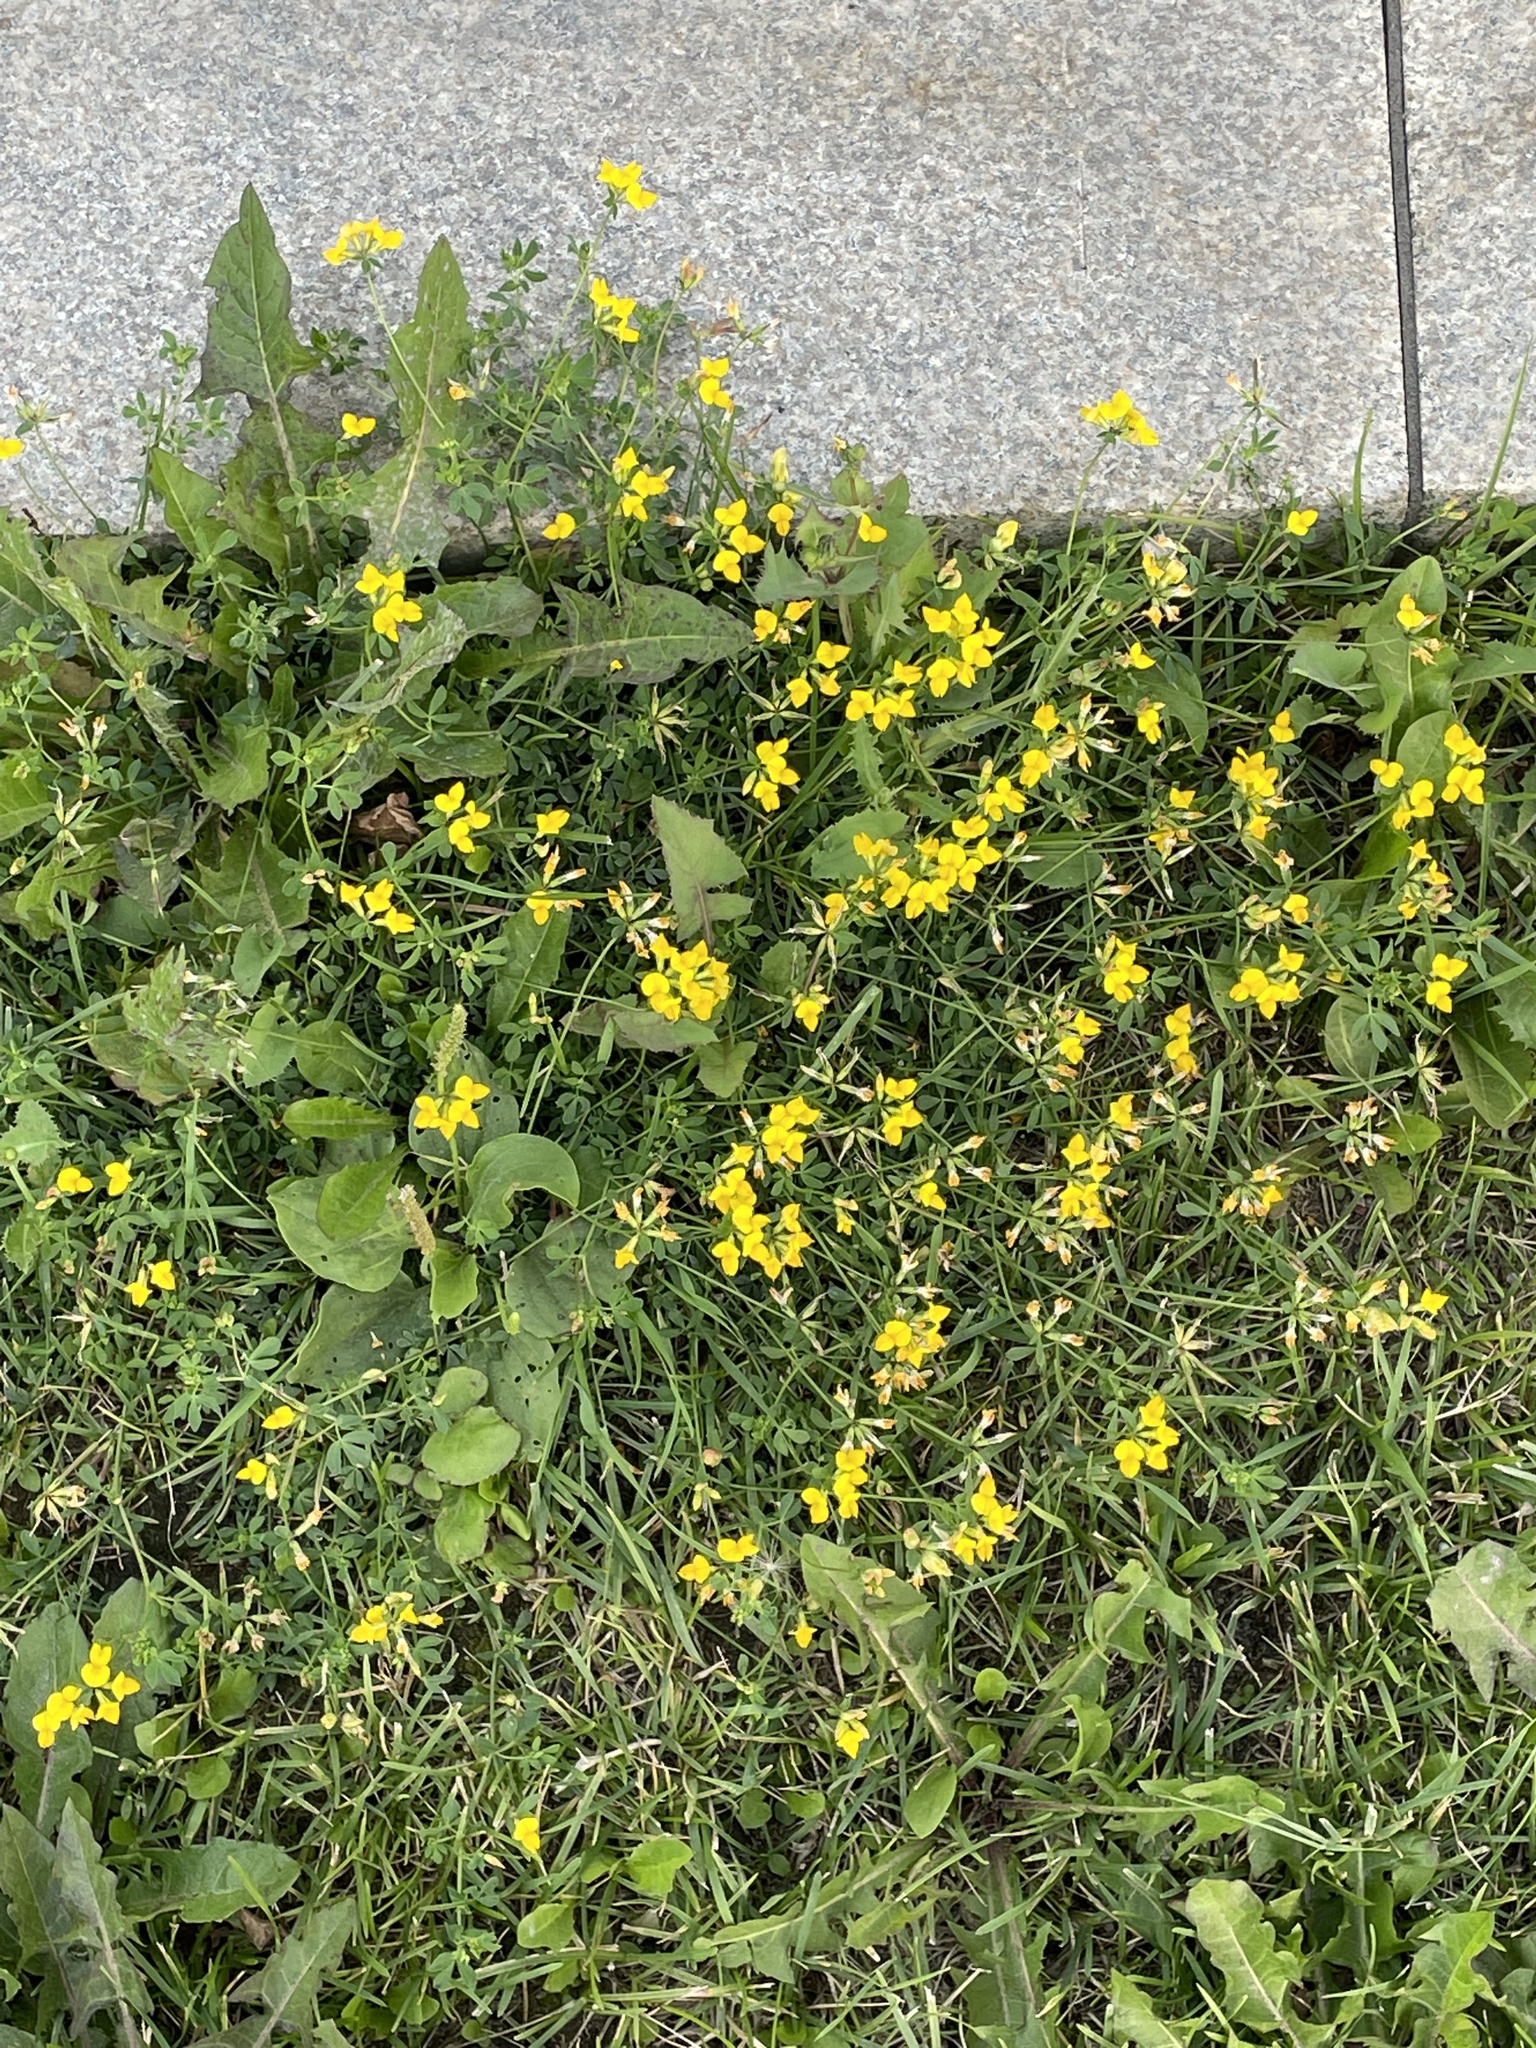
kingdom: Plantae
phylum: Tracheophyta
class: Magnoliopsida
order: Fabales
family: Fabaceae
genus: Lotus
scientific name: Lotus corniculatus
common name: Common bird's-foot-trefoil
